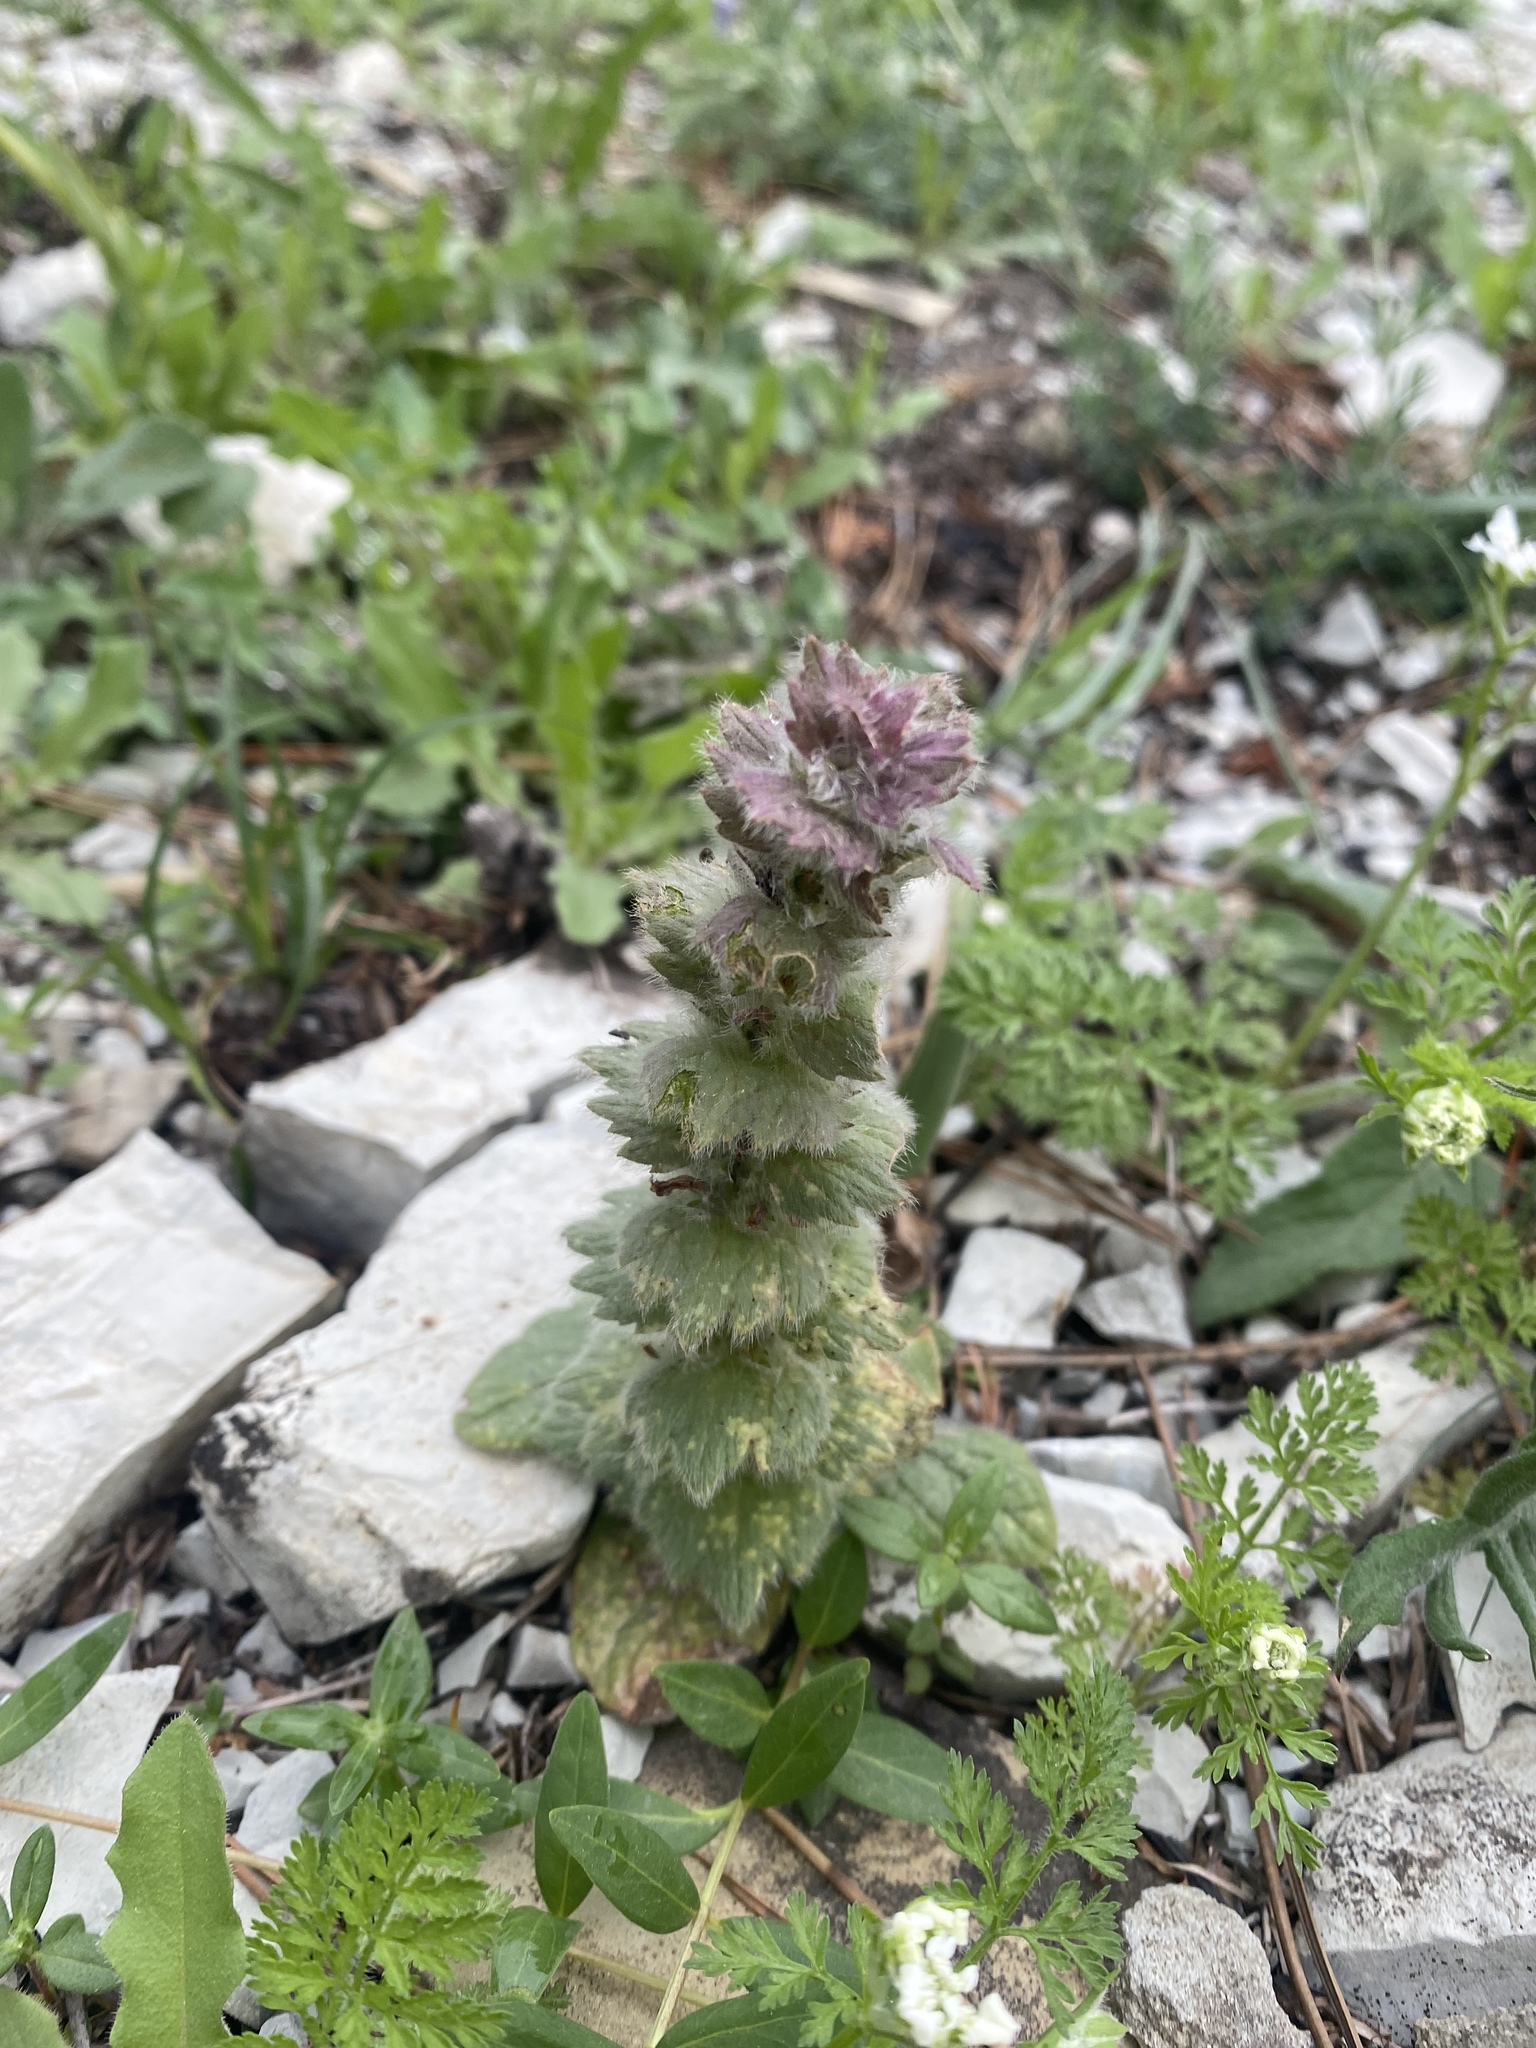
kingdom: Plantae
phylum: Tracheophyta
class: Magnoliopsida
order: Lamiales
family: Lamiaceae
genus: Ajuga
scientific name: Ajuga orientalis
